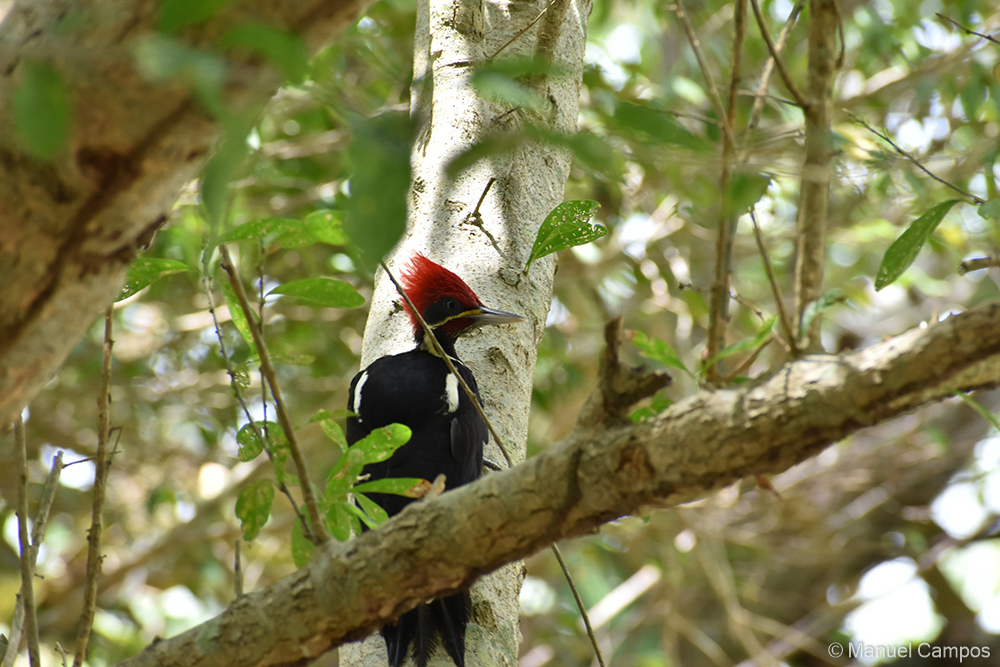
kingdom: Animalia
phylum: Chordata
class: Aves
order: Piciformes
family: Picidae
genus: Dryocopus
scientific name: Dryocopus lineatus
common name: Lineated woodpecker
